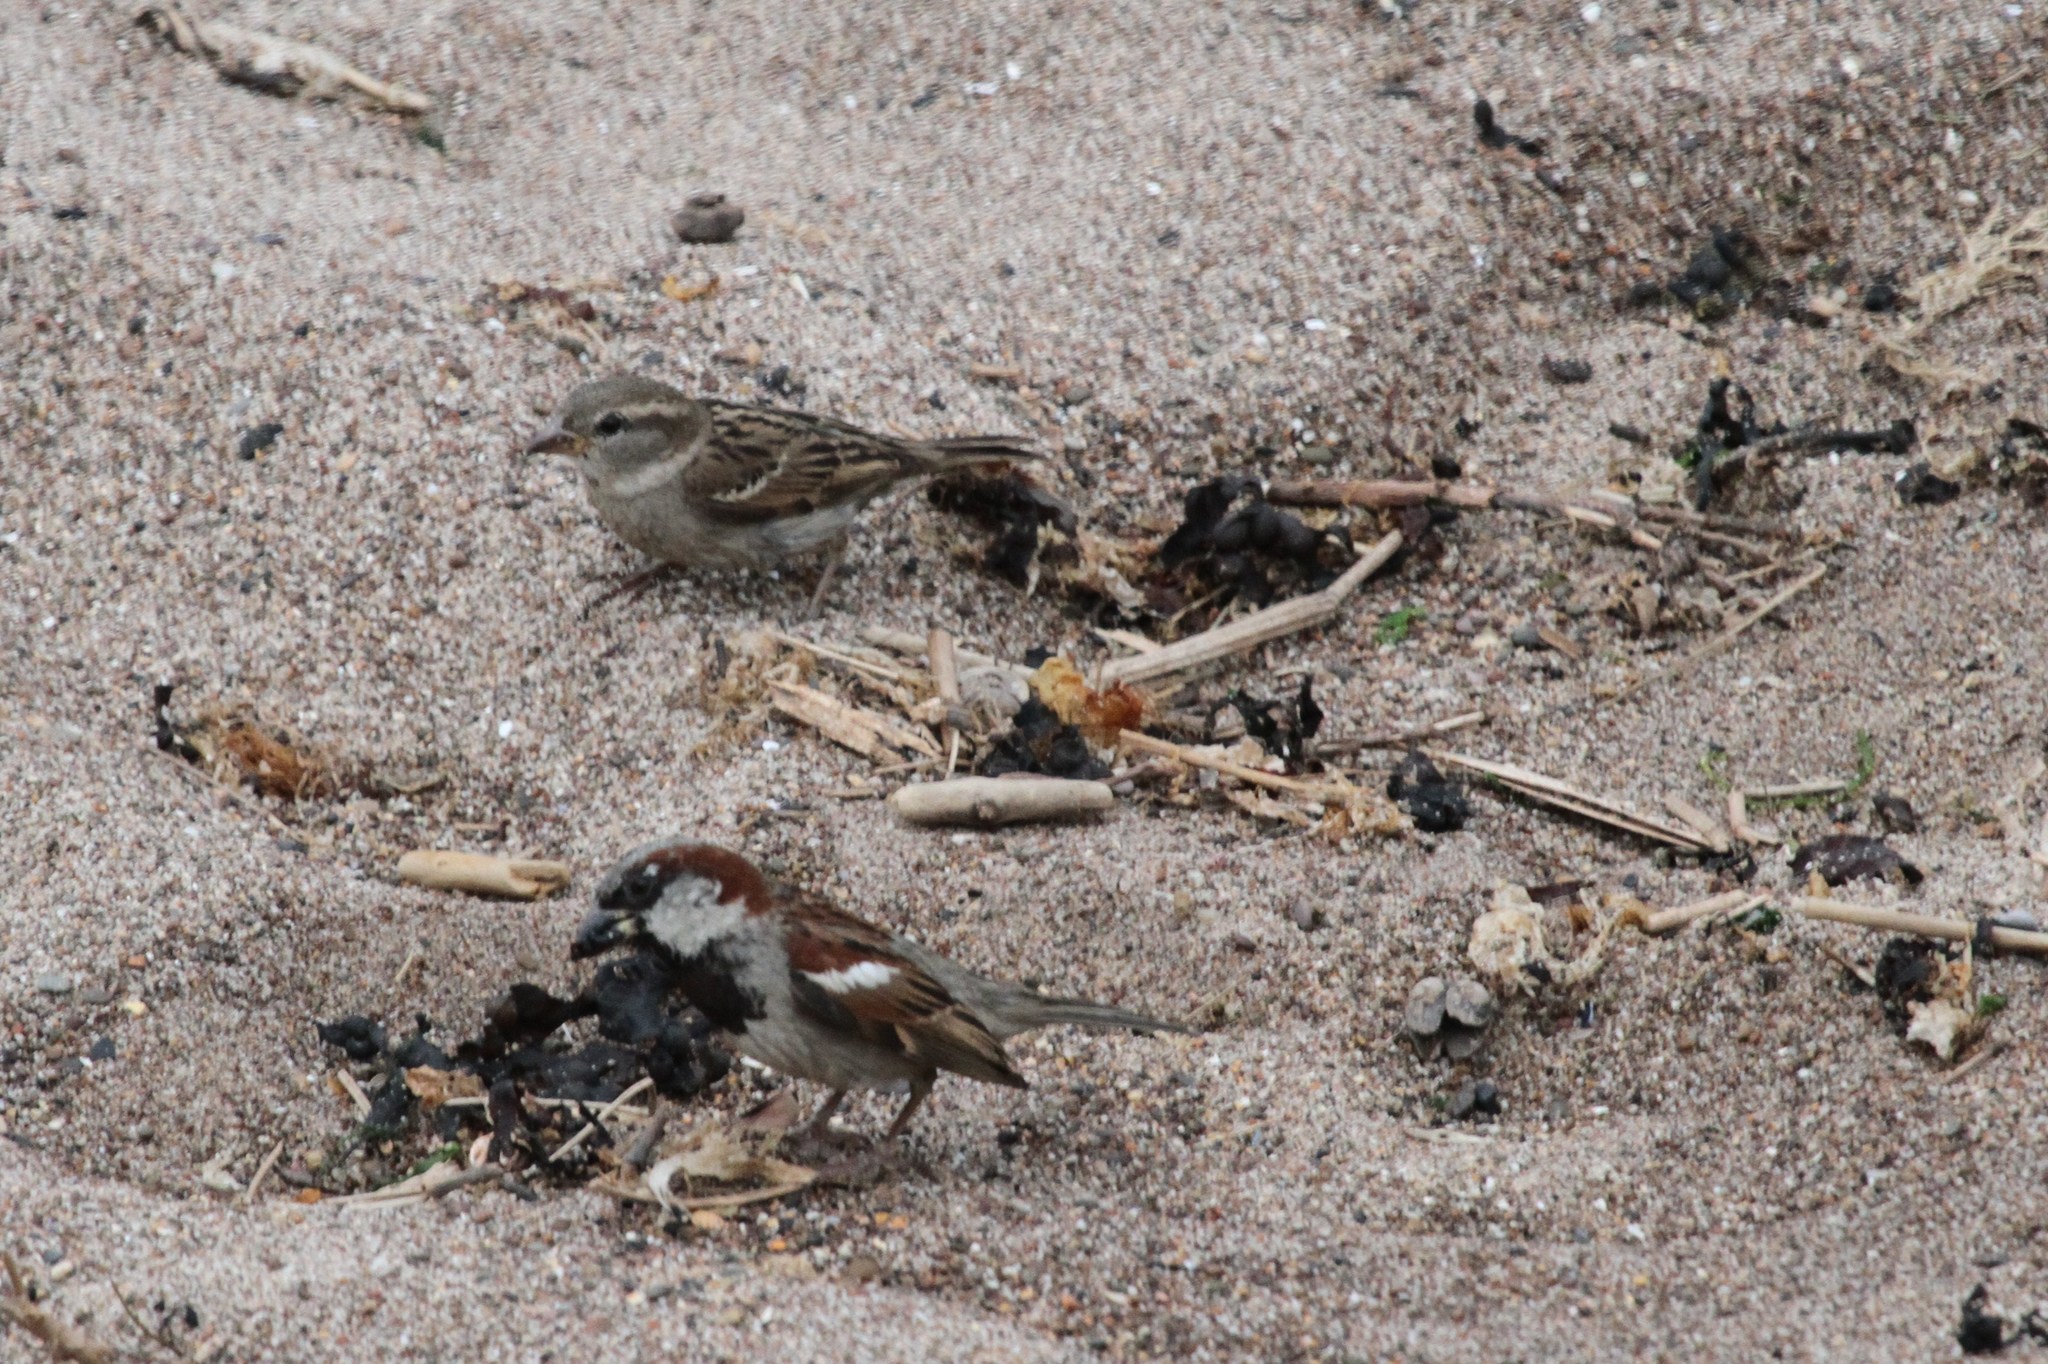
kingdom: Animalia
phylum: Chordata
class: Aves
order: Passeriformes
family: Passeridae
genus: Passer
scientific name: Passer domesticus
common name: House sparrow
